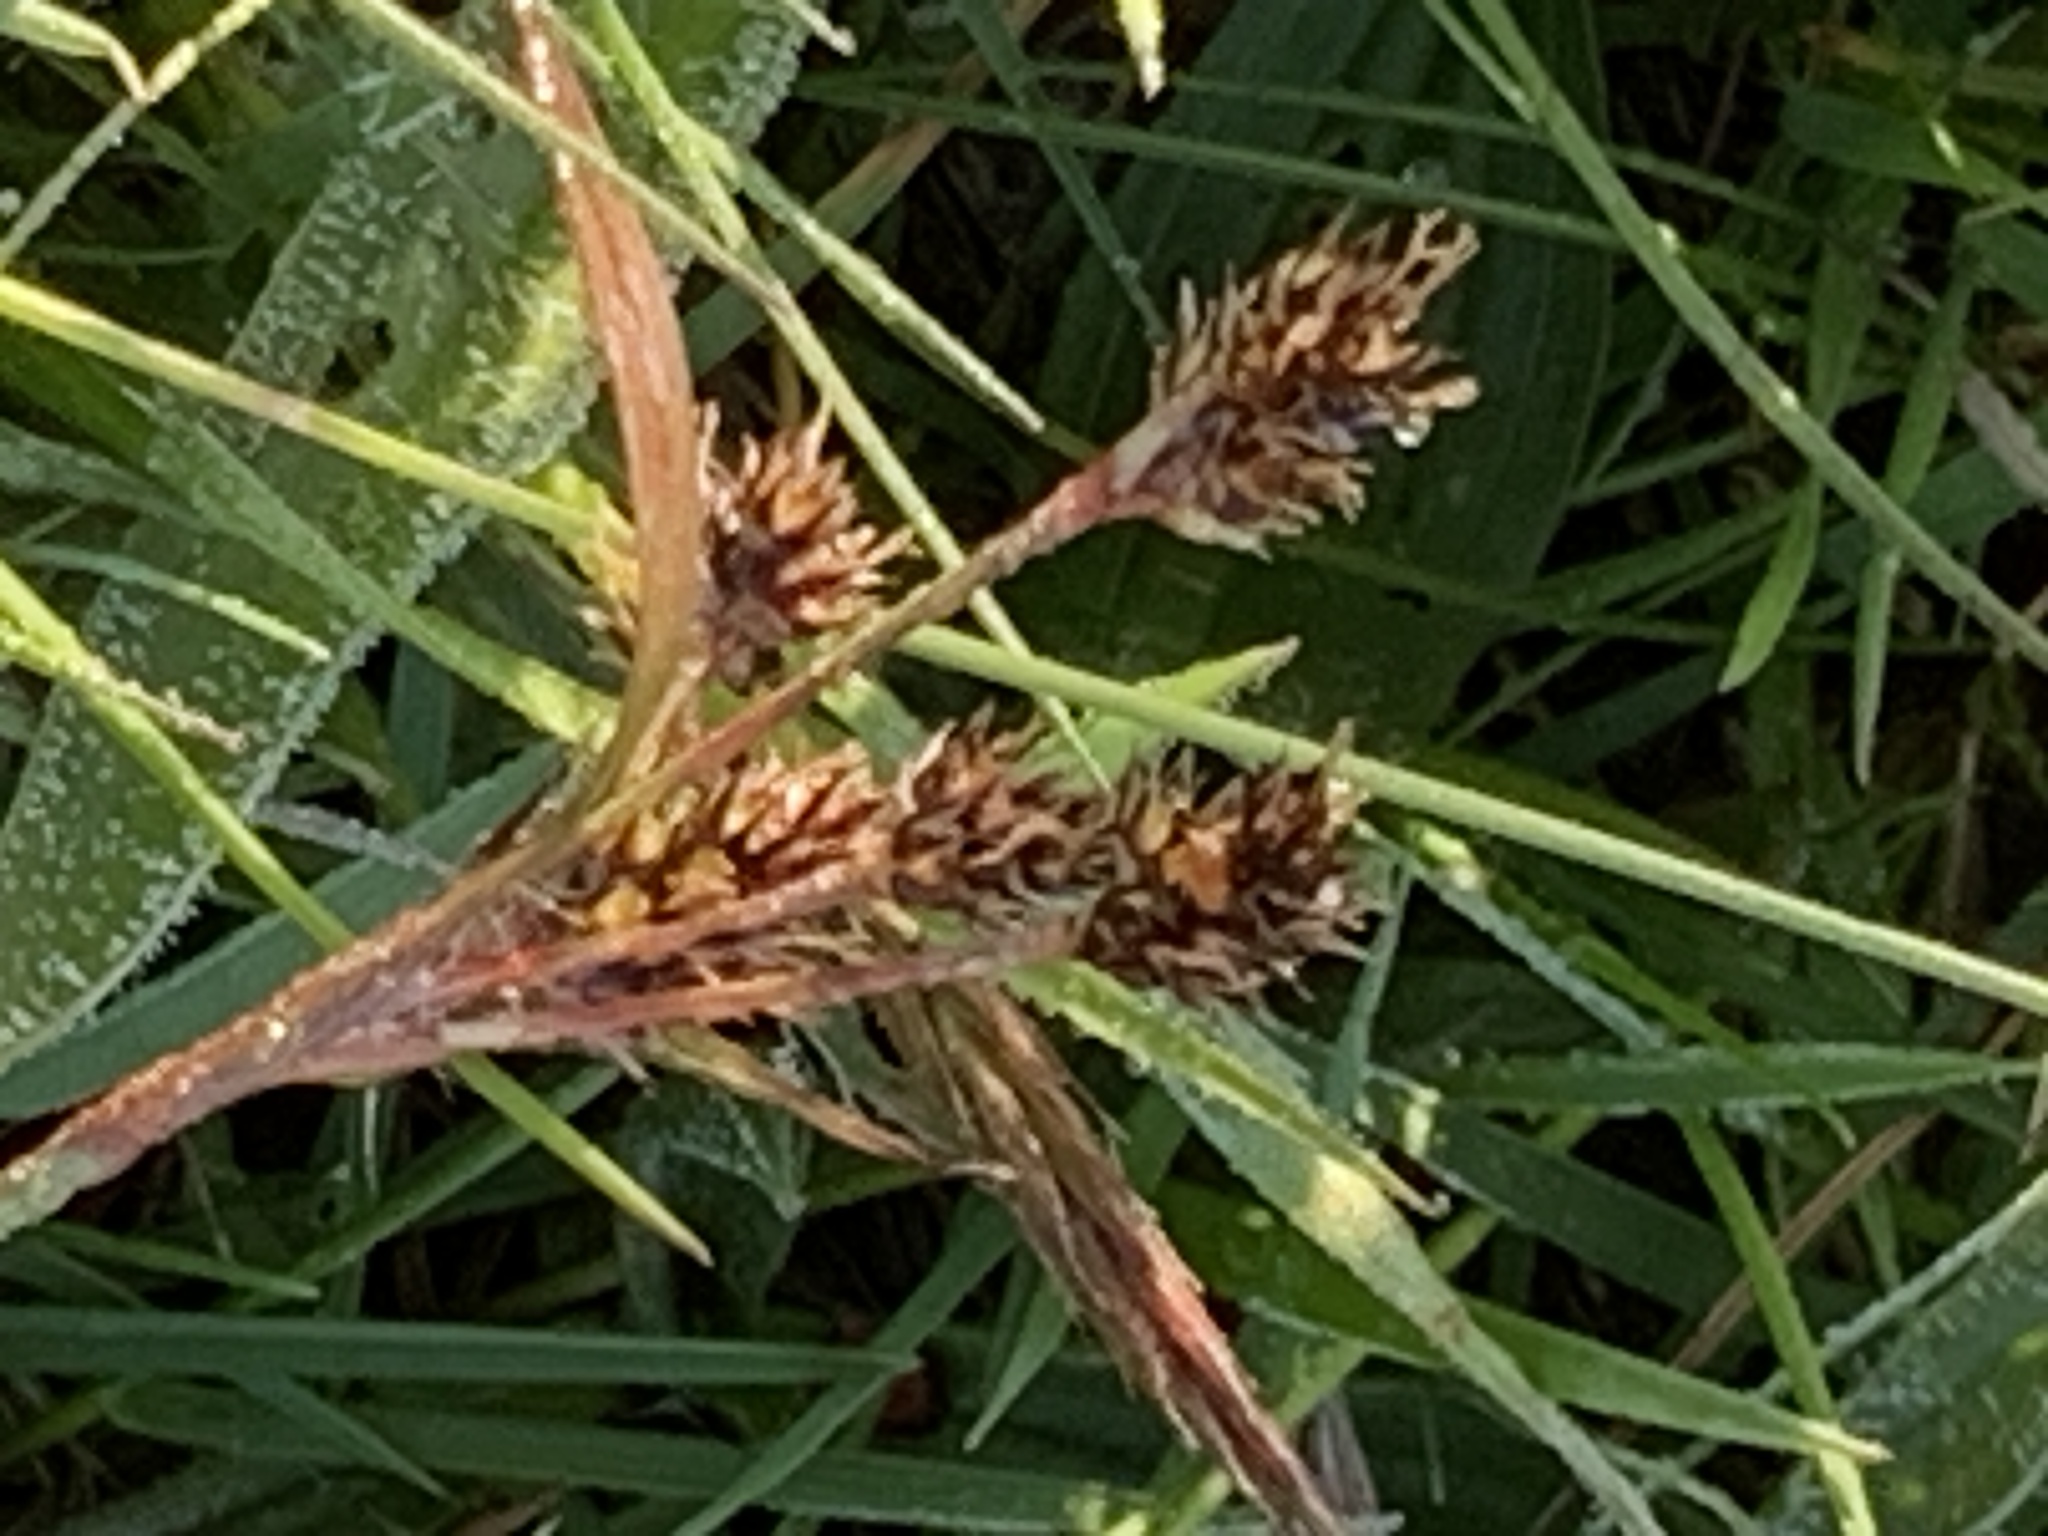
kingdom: Plantae
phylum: Tracheophyta
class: Liliopsida
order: Poales
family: Juncaceae
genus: Luzula
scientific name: Luzula campestris
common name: Field wood-rush
